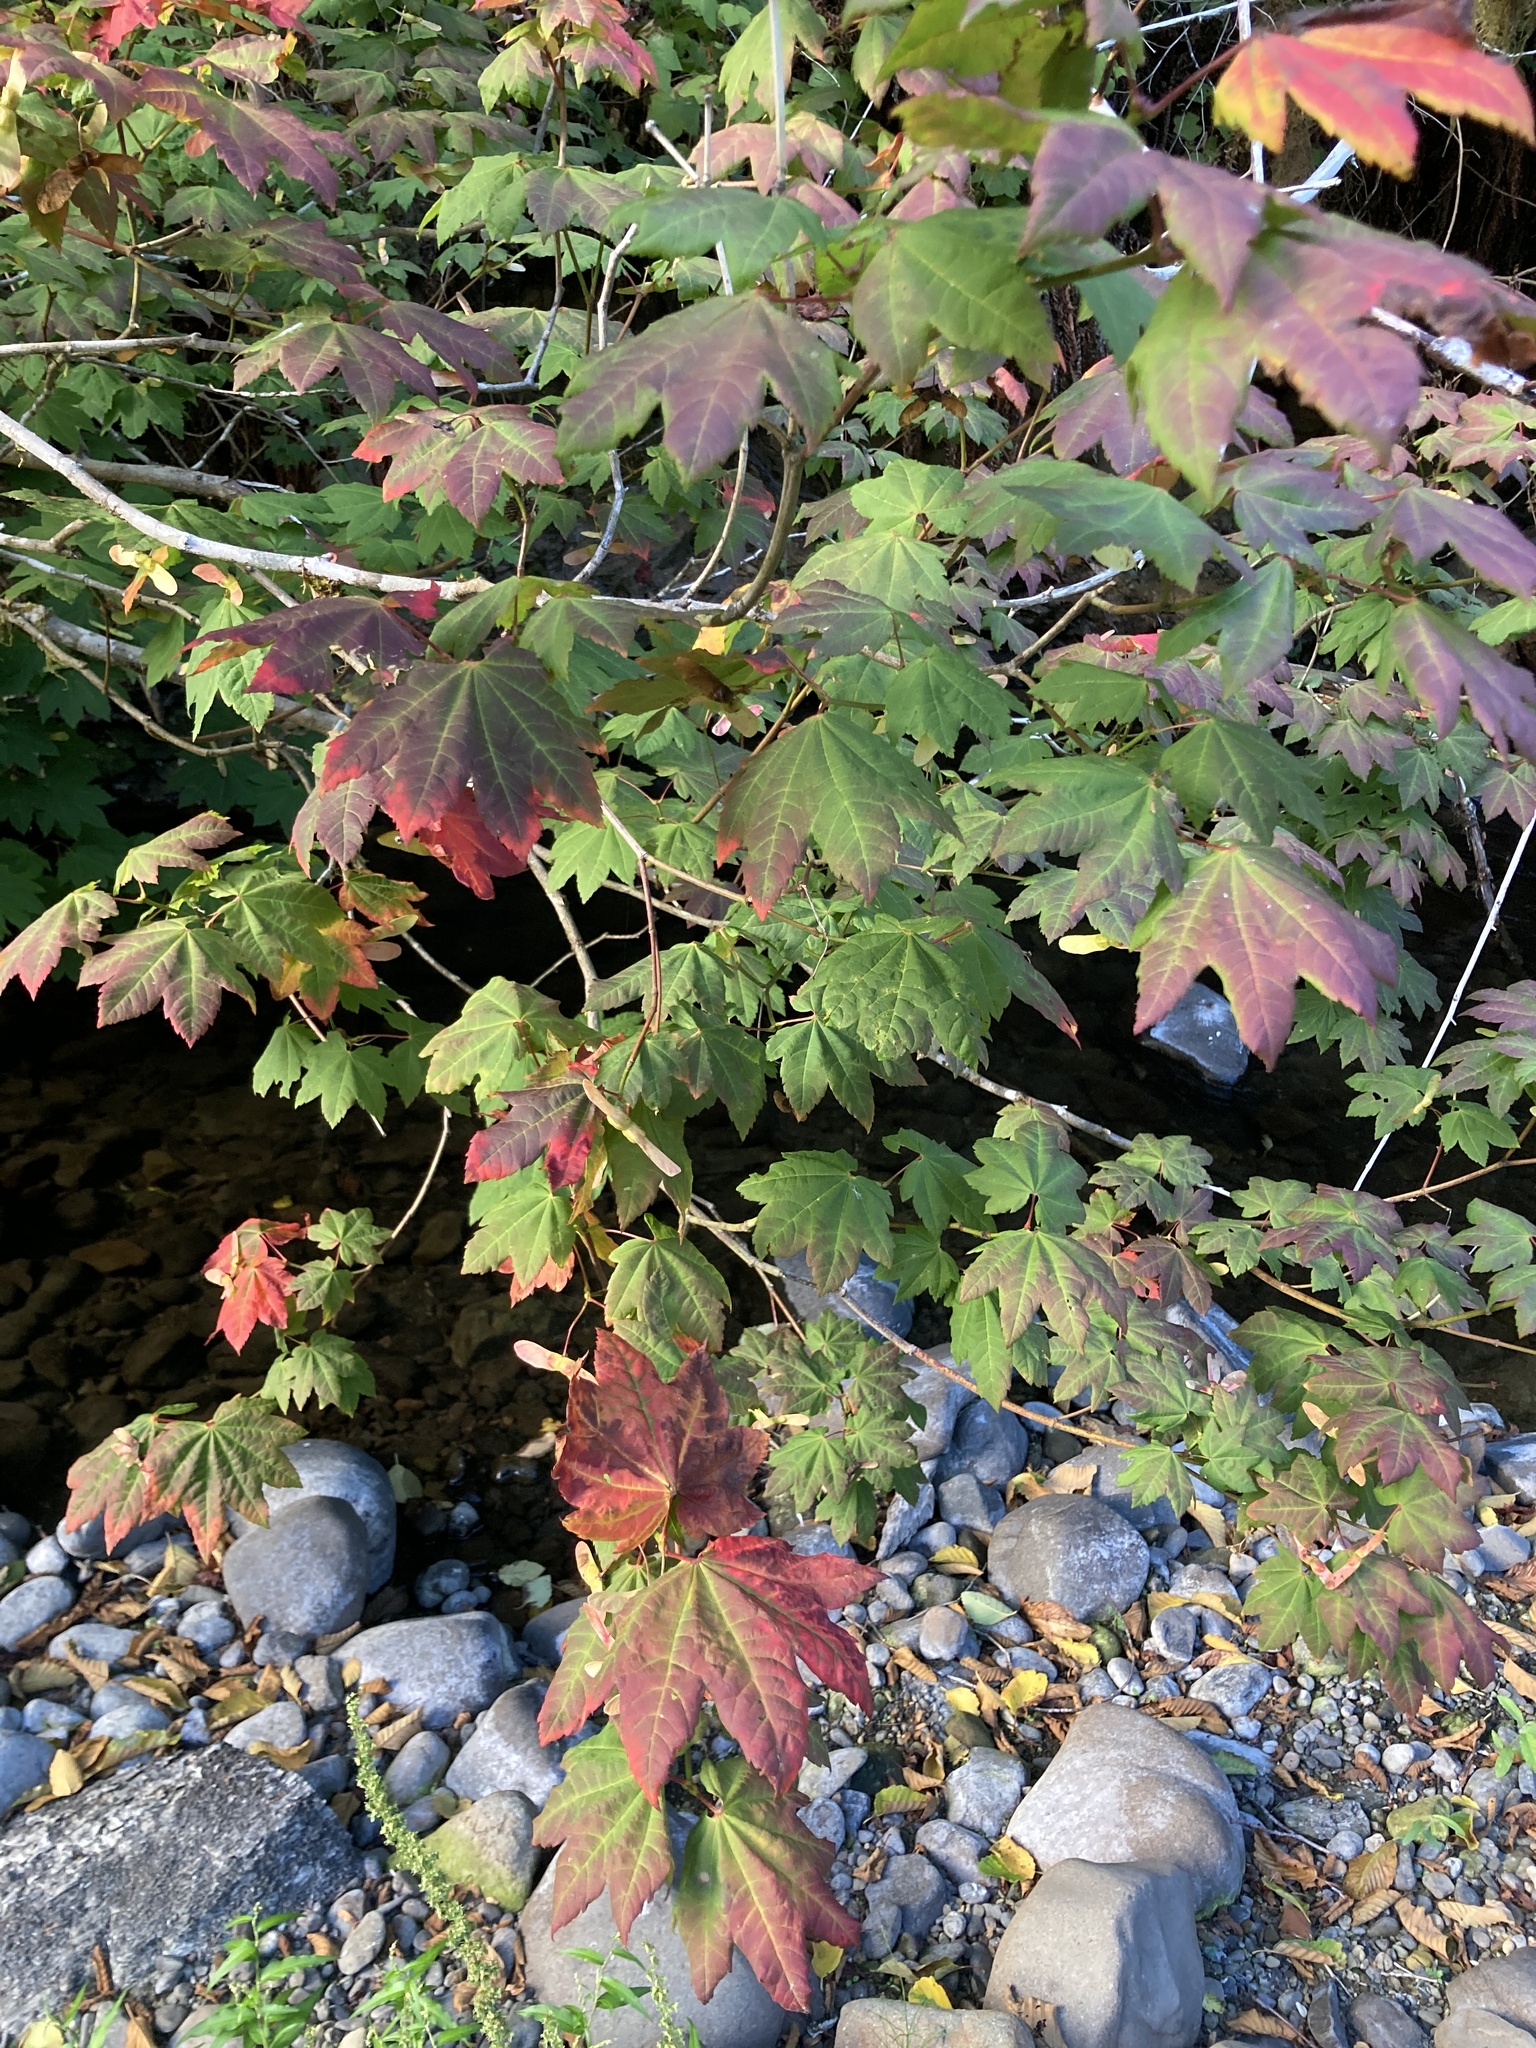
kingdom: Plantae
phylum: Tracheophyta
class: Magnoliopsida
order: Sapindales
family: Sapindaceae
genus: Acer
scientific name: Acer circinatum
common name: Vine maple
